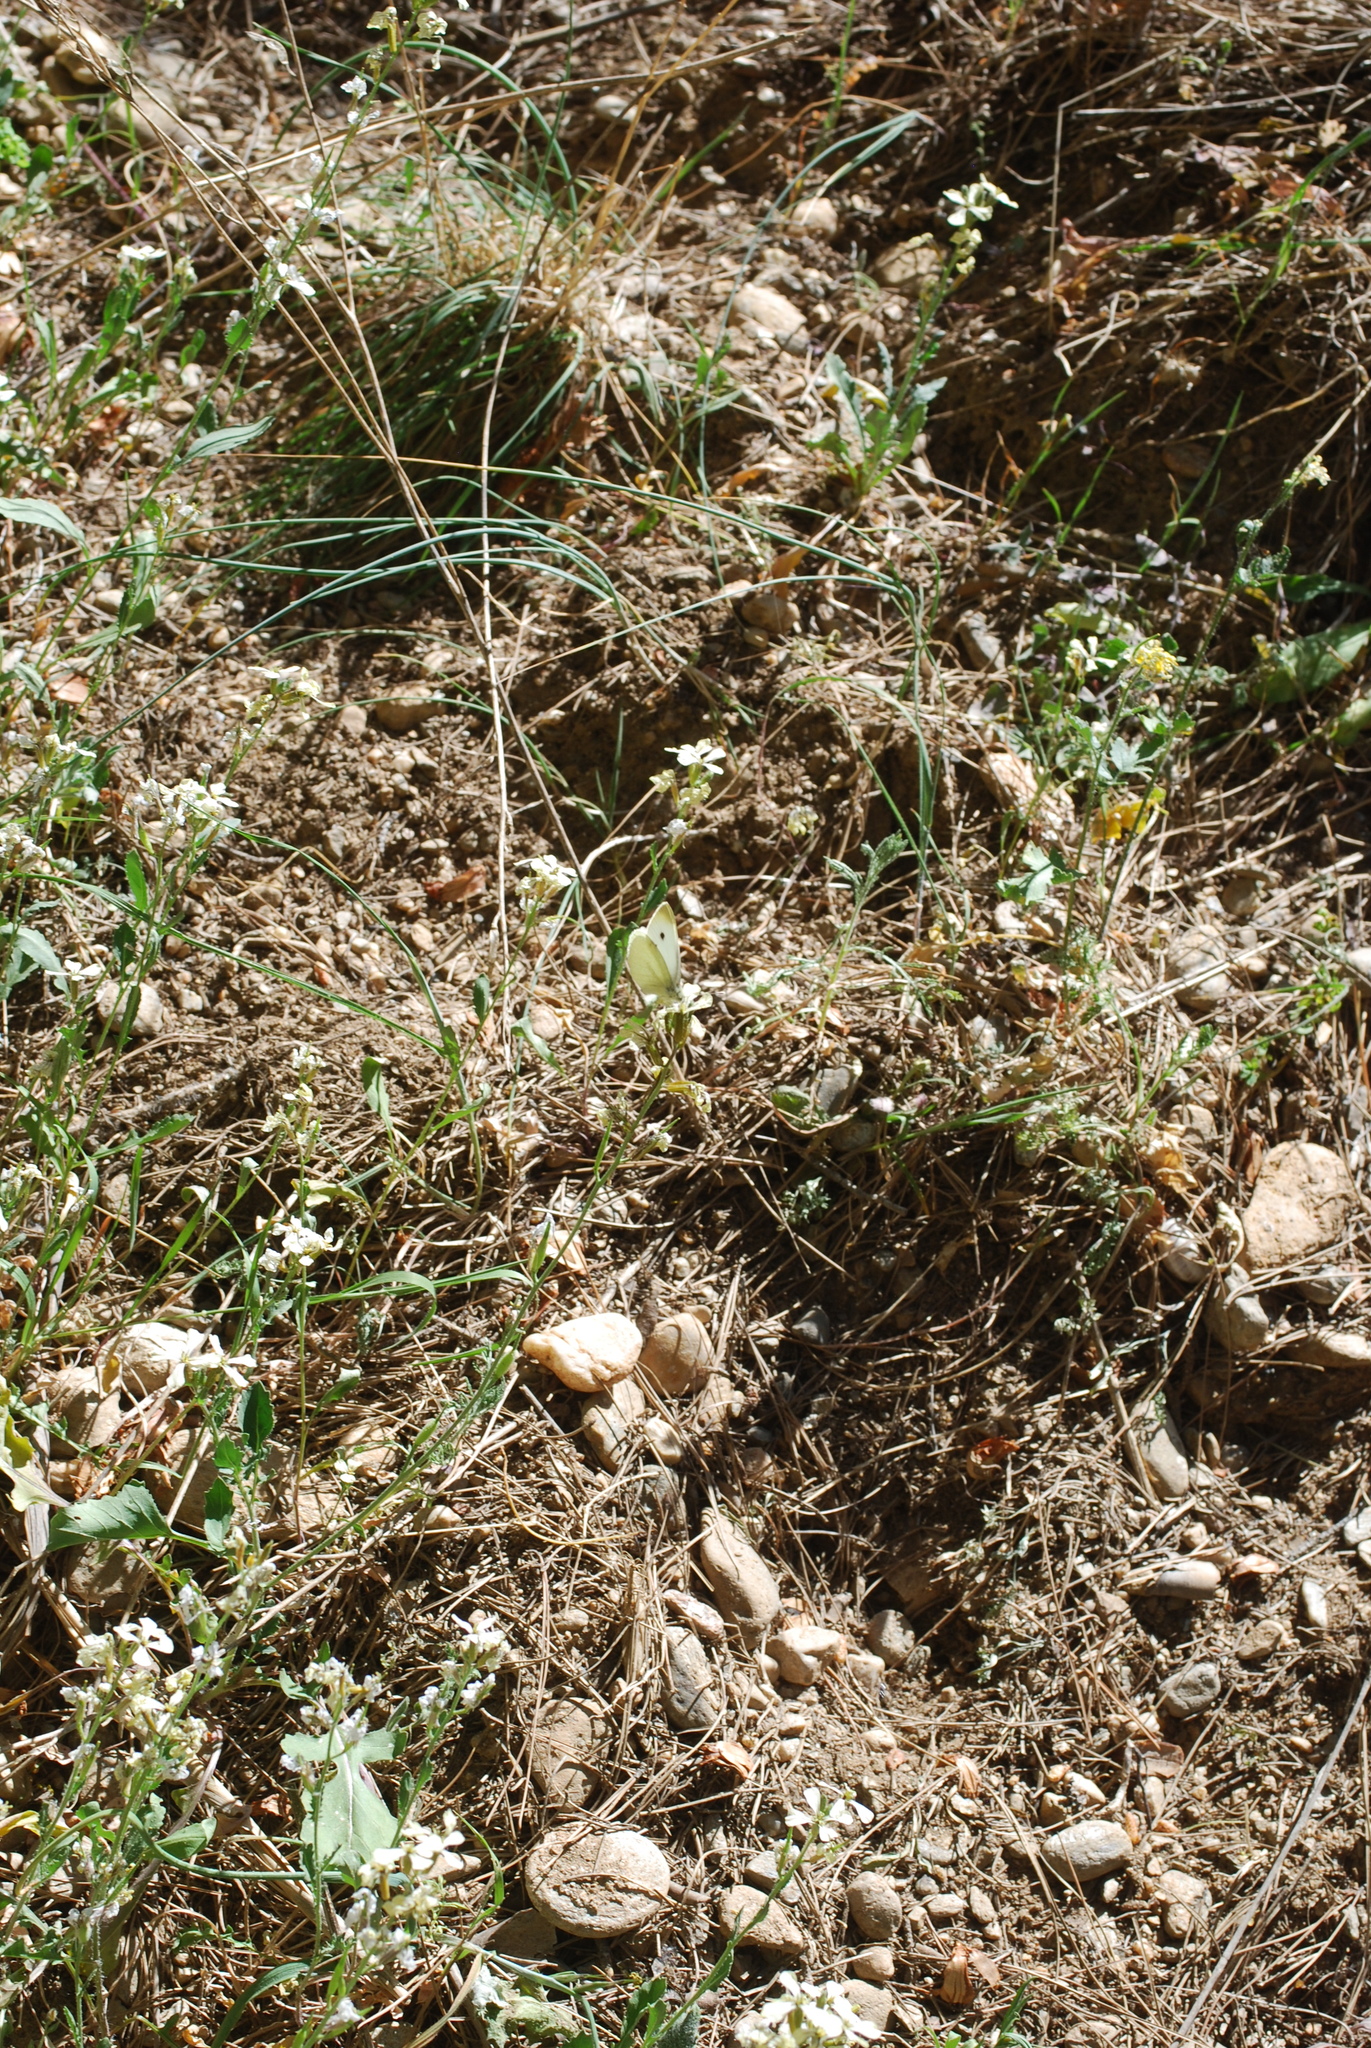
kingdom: Animalia
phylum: Arthropoda
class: Insecta
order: Lepidoptera
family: Pieridae
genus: Pieris
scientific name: Pieris rapae
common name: Small white
